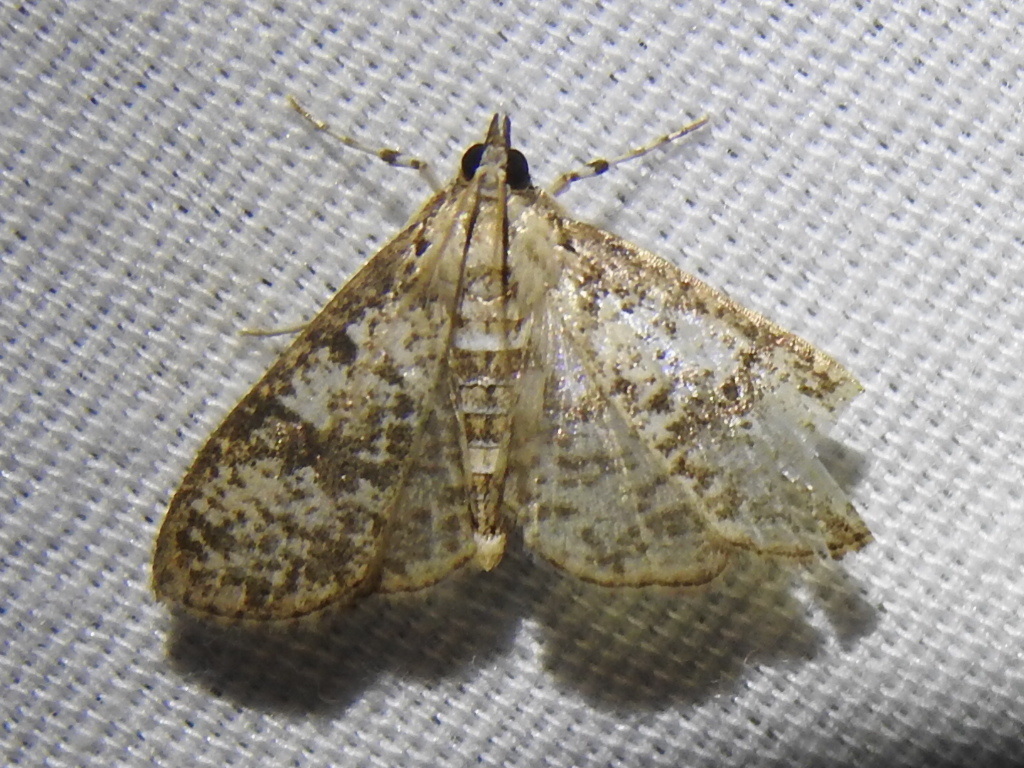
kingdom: Animalia
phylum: Arthropoda
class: Insecta
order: Lepidoptera
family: Crambidae
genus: Palpita
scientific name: Palpita magniferalis
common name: Splendid palpita moth
